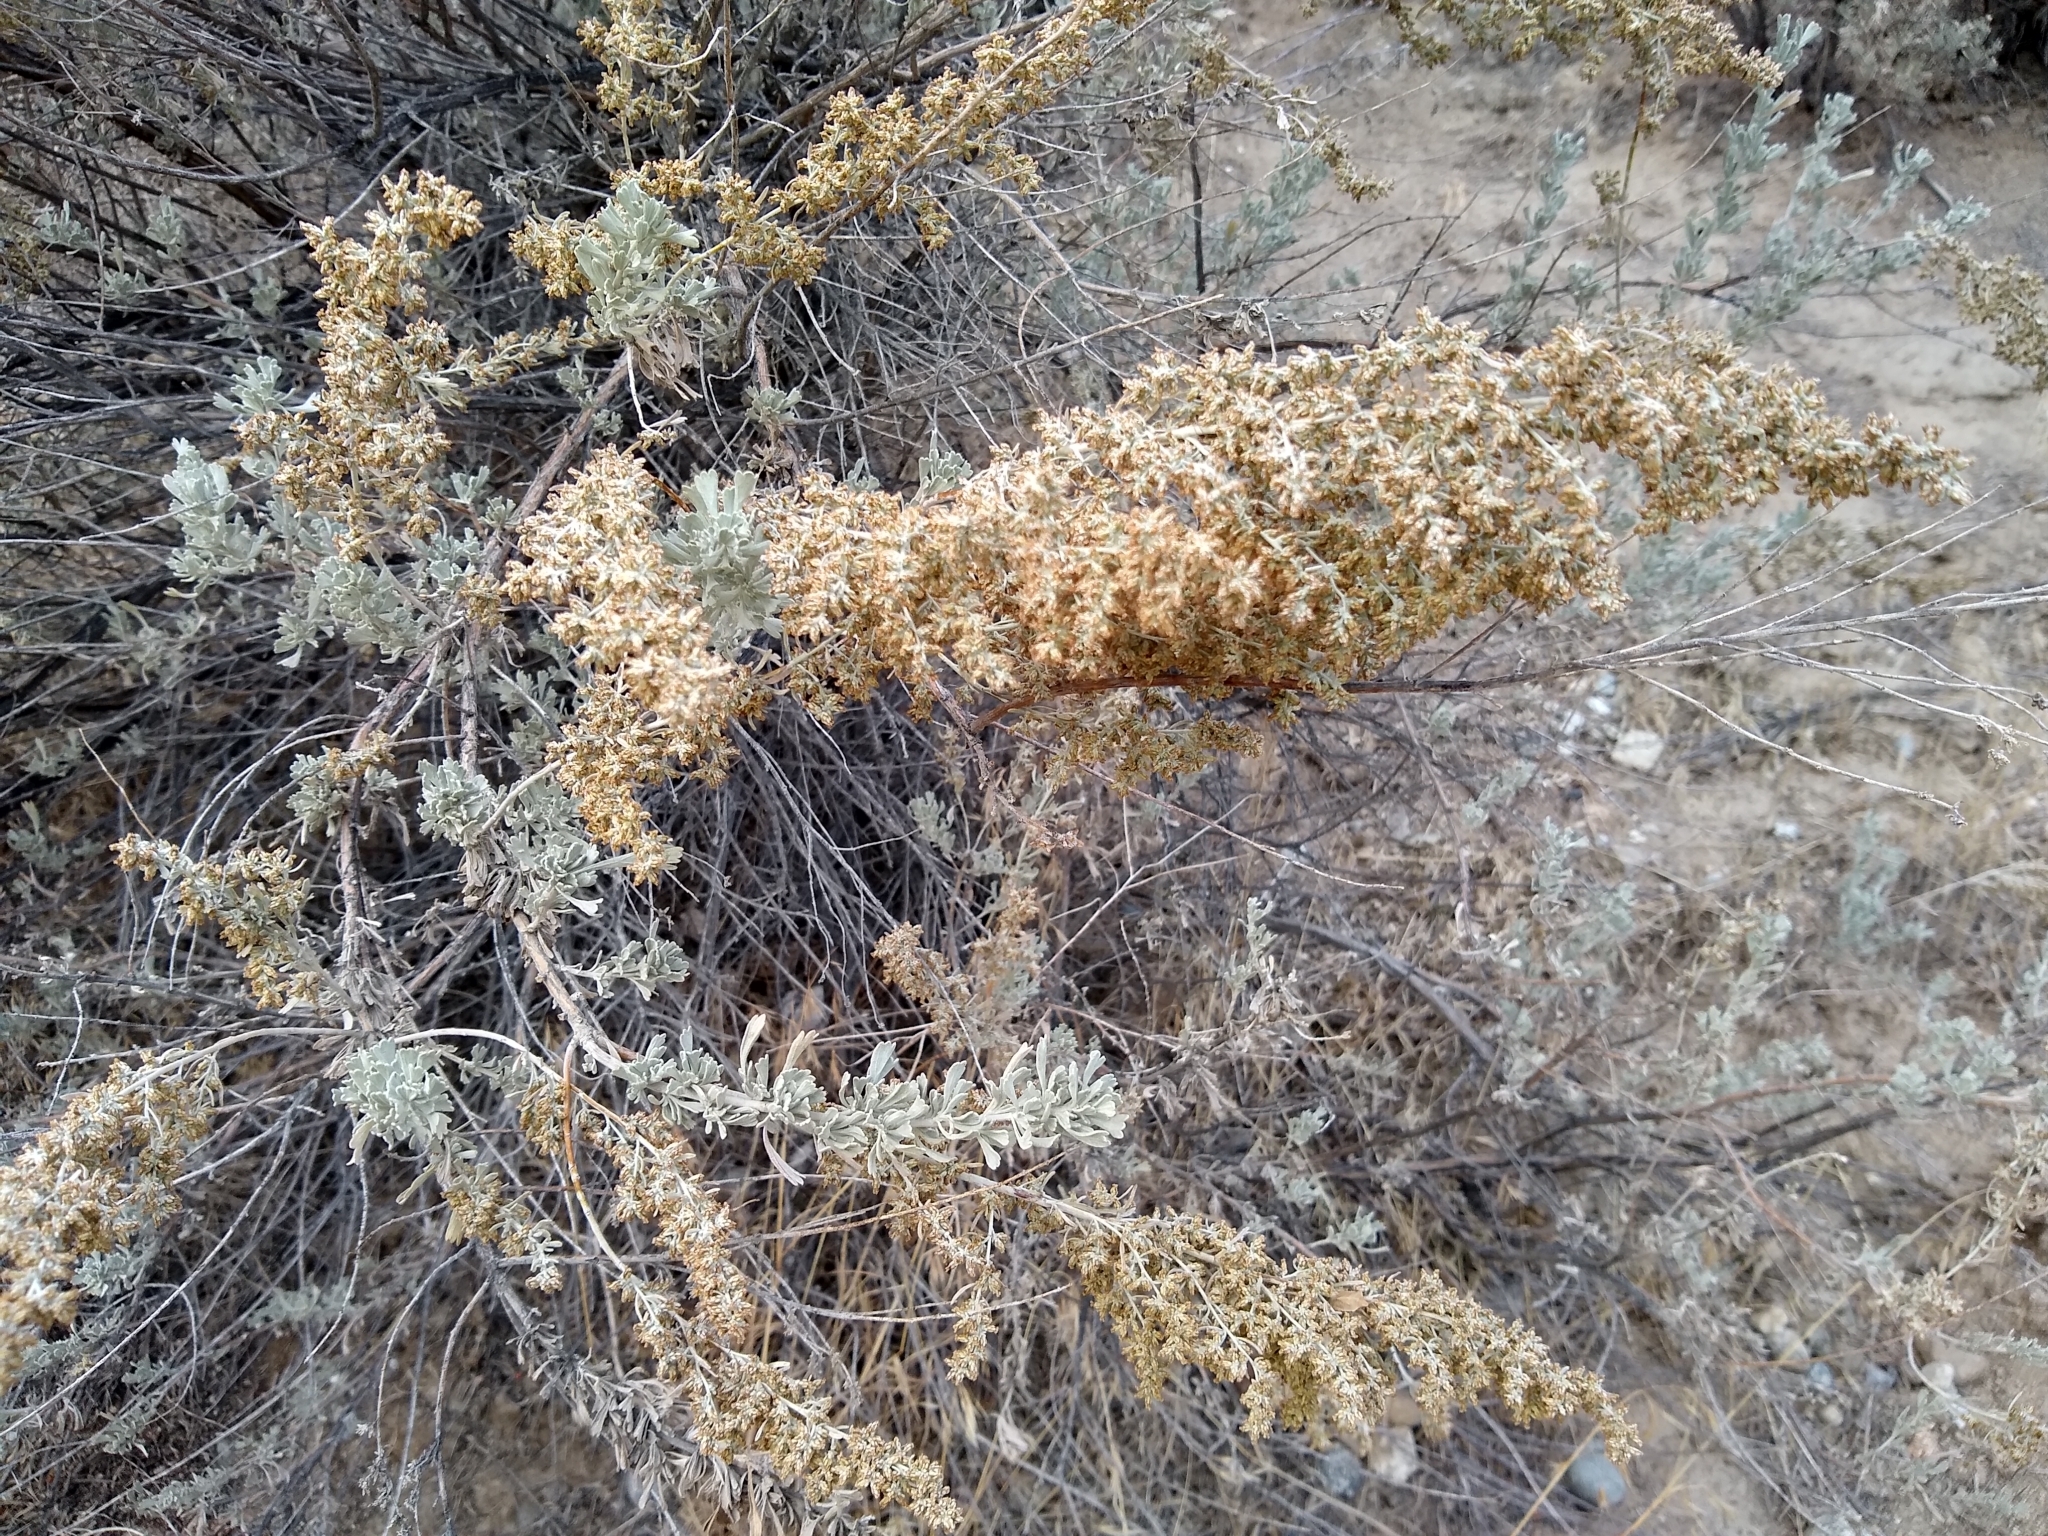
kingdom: Plantae
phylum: Tracheophyta
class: Magnoliopsida
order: Asterales
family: Asteraceae
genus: Artemisia
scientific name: Artemisia tridentata
